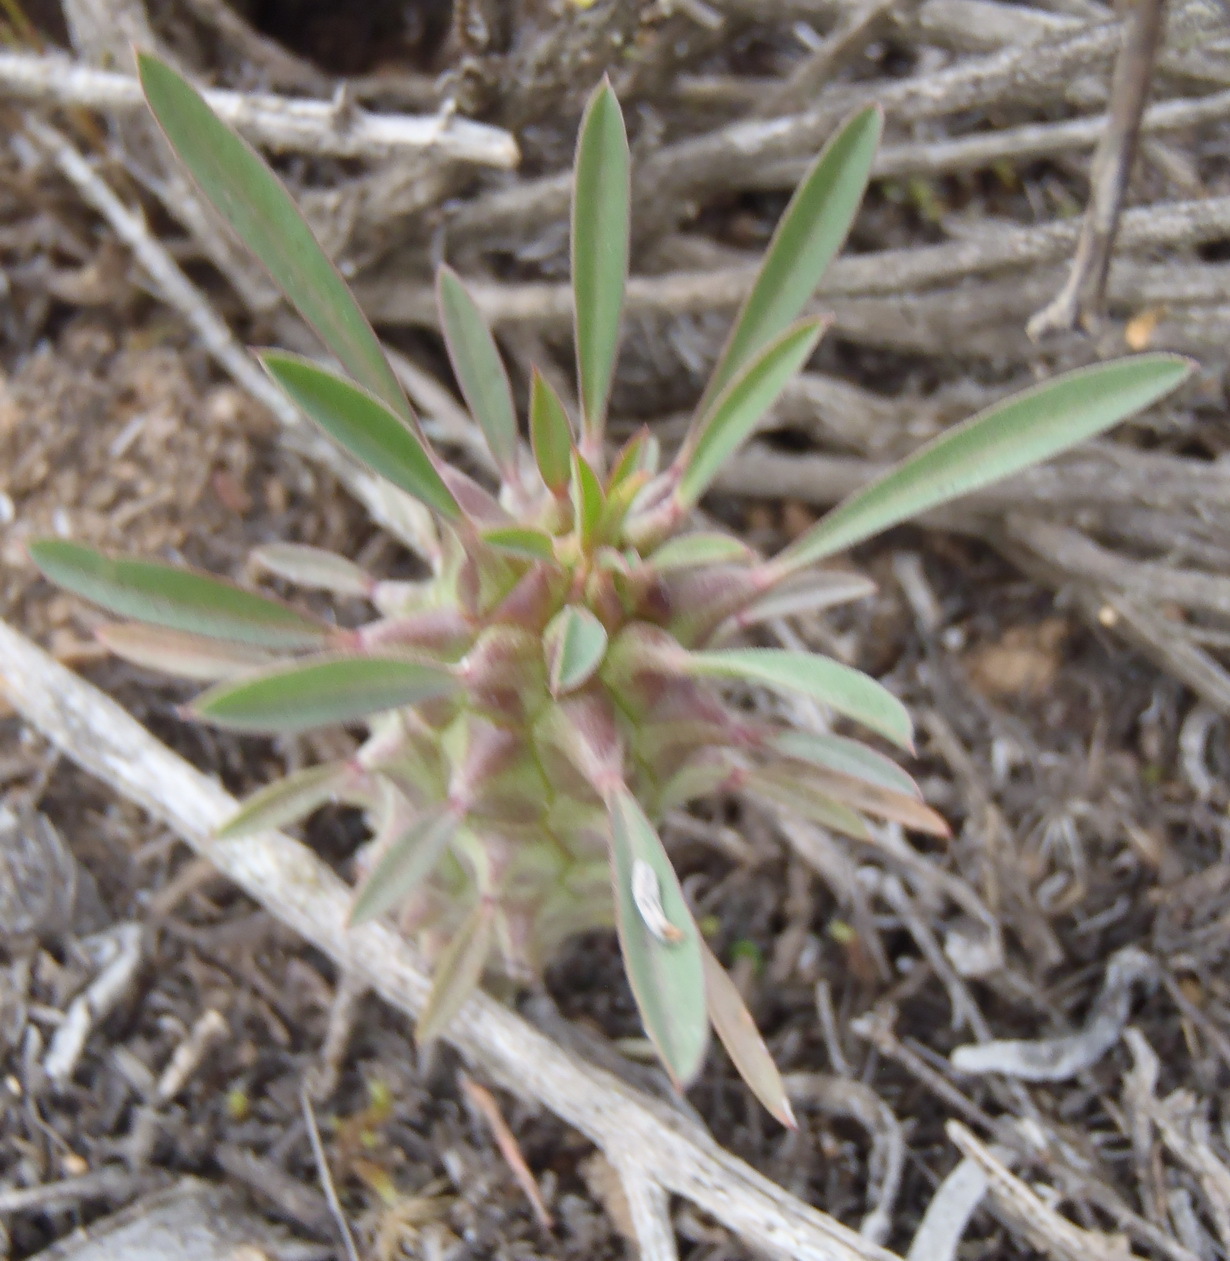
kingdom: Plantae
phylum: Tracheophyta
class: Magnoliopsida
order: Malpighiales
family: Euphorbiaceae
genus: Euphorbia
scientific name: Euphorbia clandestina
